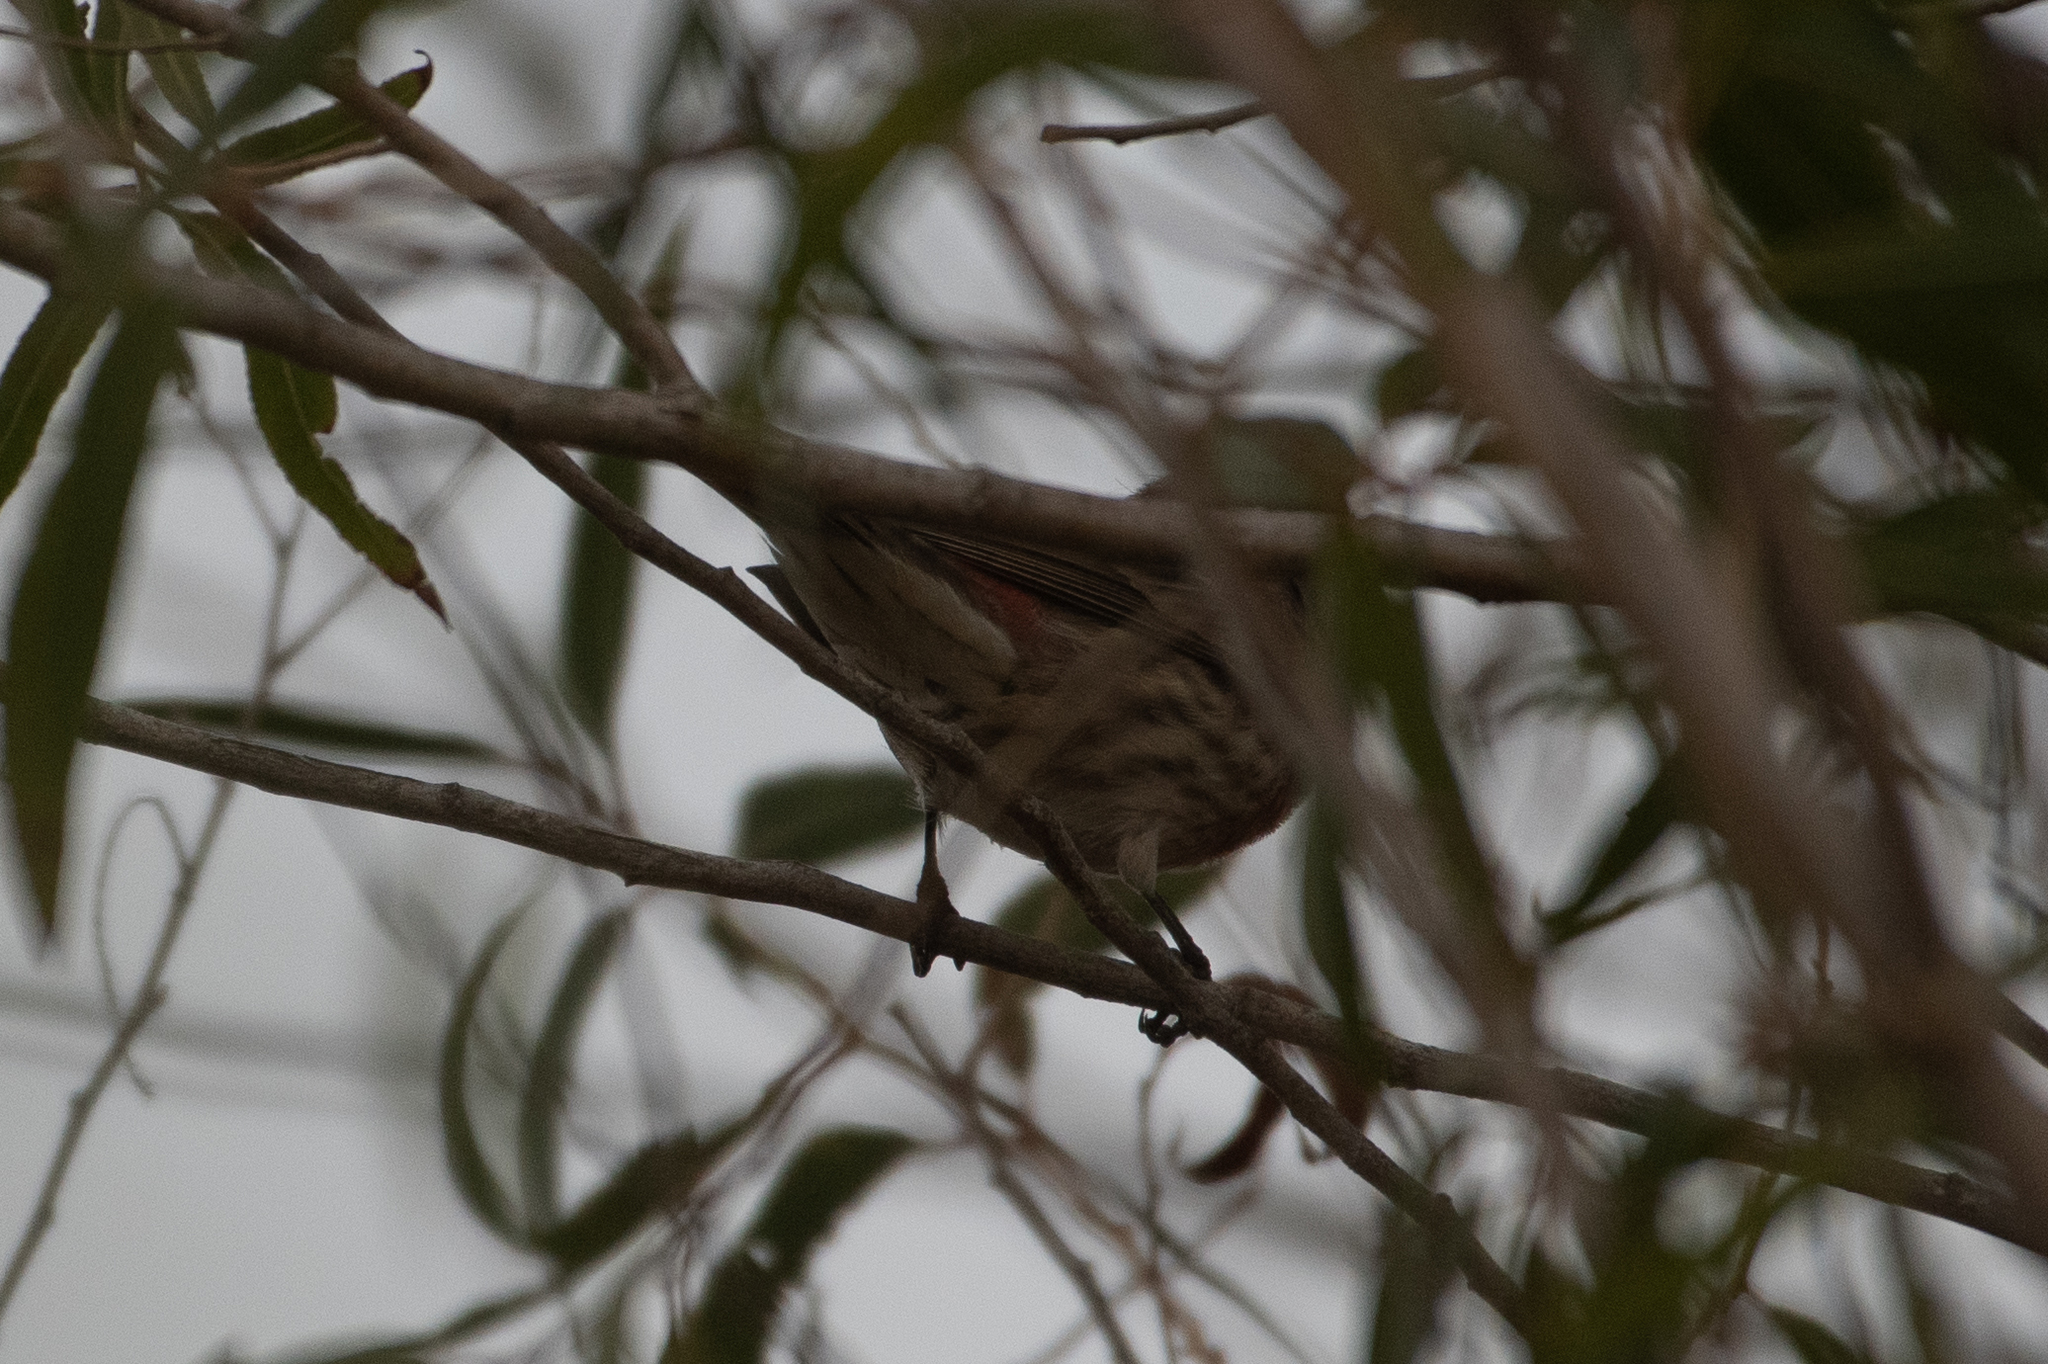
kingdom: Animalia
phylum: Chordata
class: Aves
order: Passeriformes
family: Fringillidae
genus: Haemorhous
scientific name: Haemorhous mexicanus
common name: House finch
